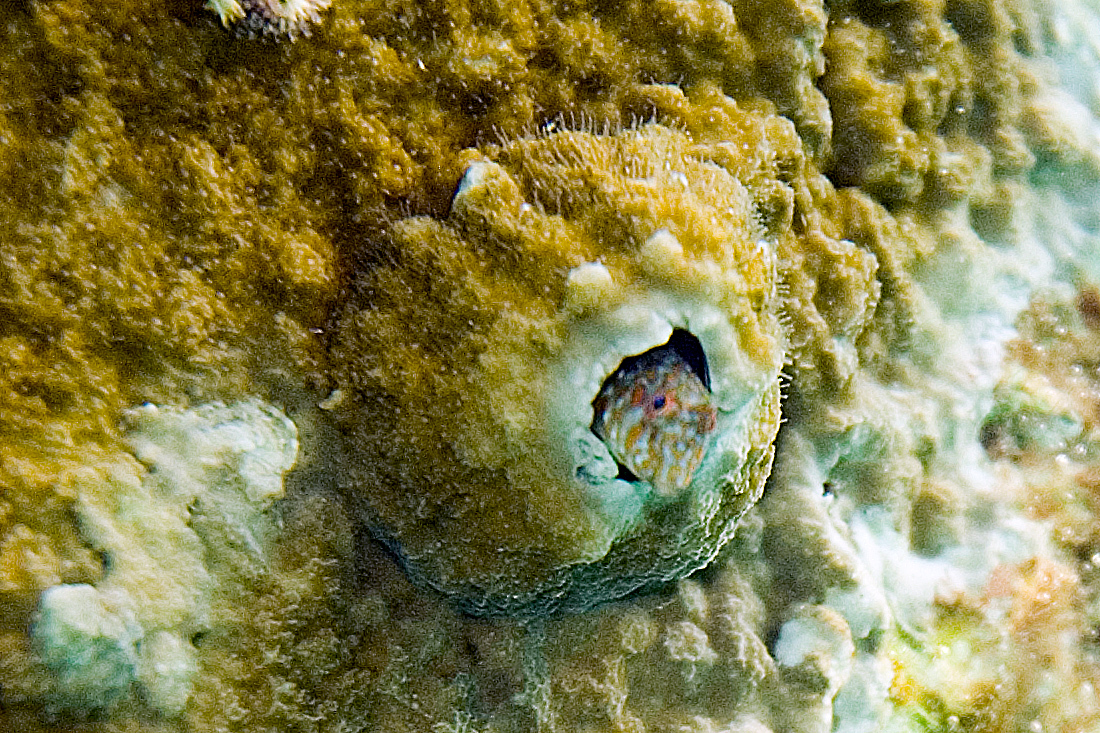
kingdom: Animalia
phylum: Chordata
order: Perciformes
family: Gobiidae
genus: Nes
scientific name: Nes longus
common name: Orangespotted goby
